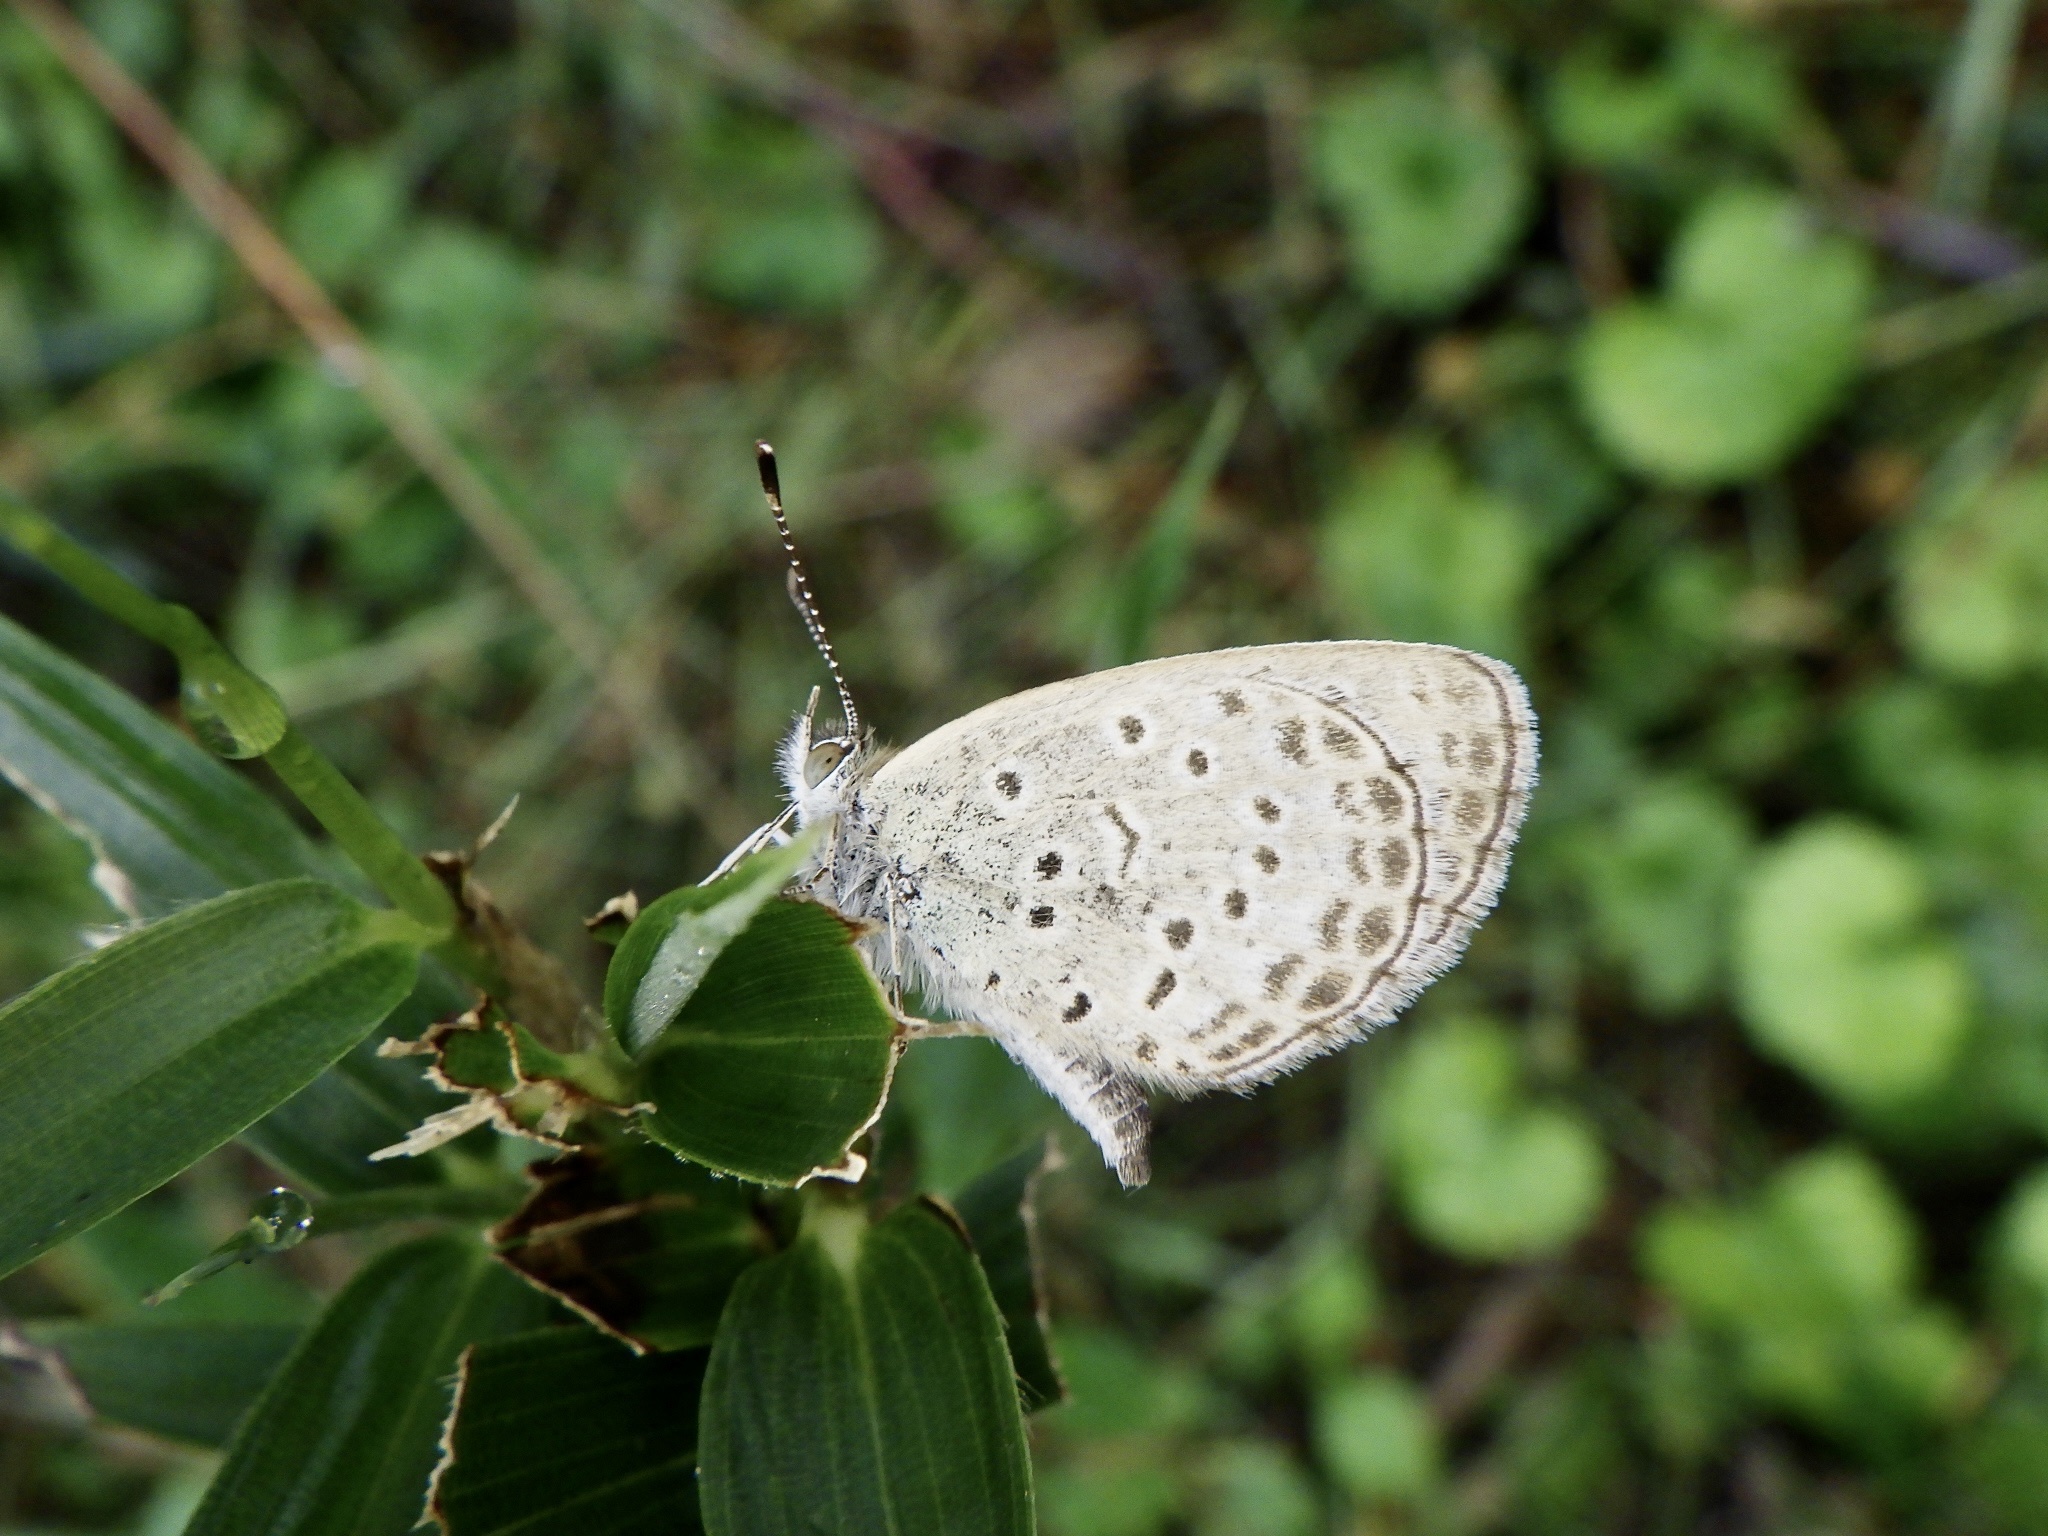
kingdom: Animalia
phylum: Arthropoda
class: Insecta
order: Lepidoptera
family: Lycaenidae
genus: Pseudozizeeria
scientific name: Pseudozizeeria maha
